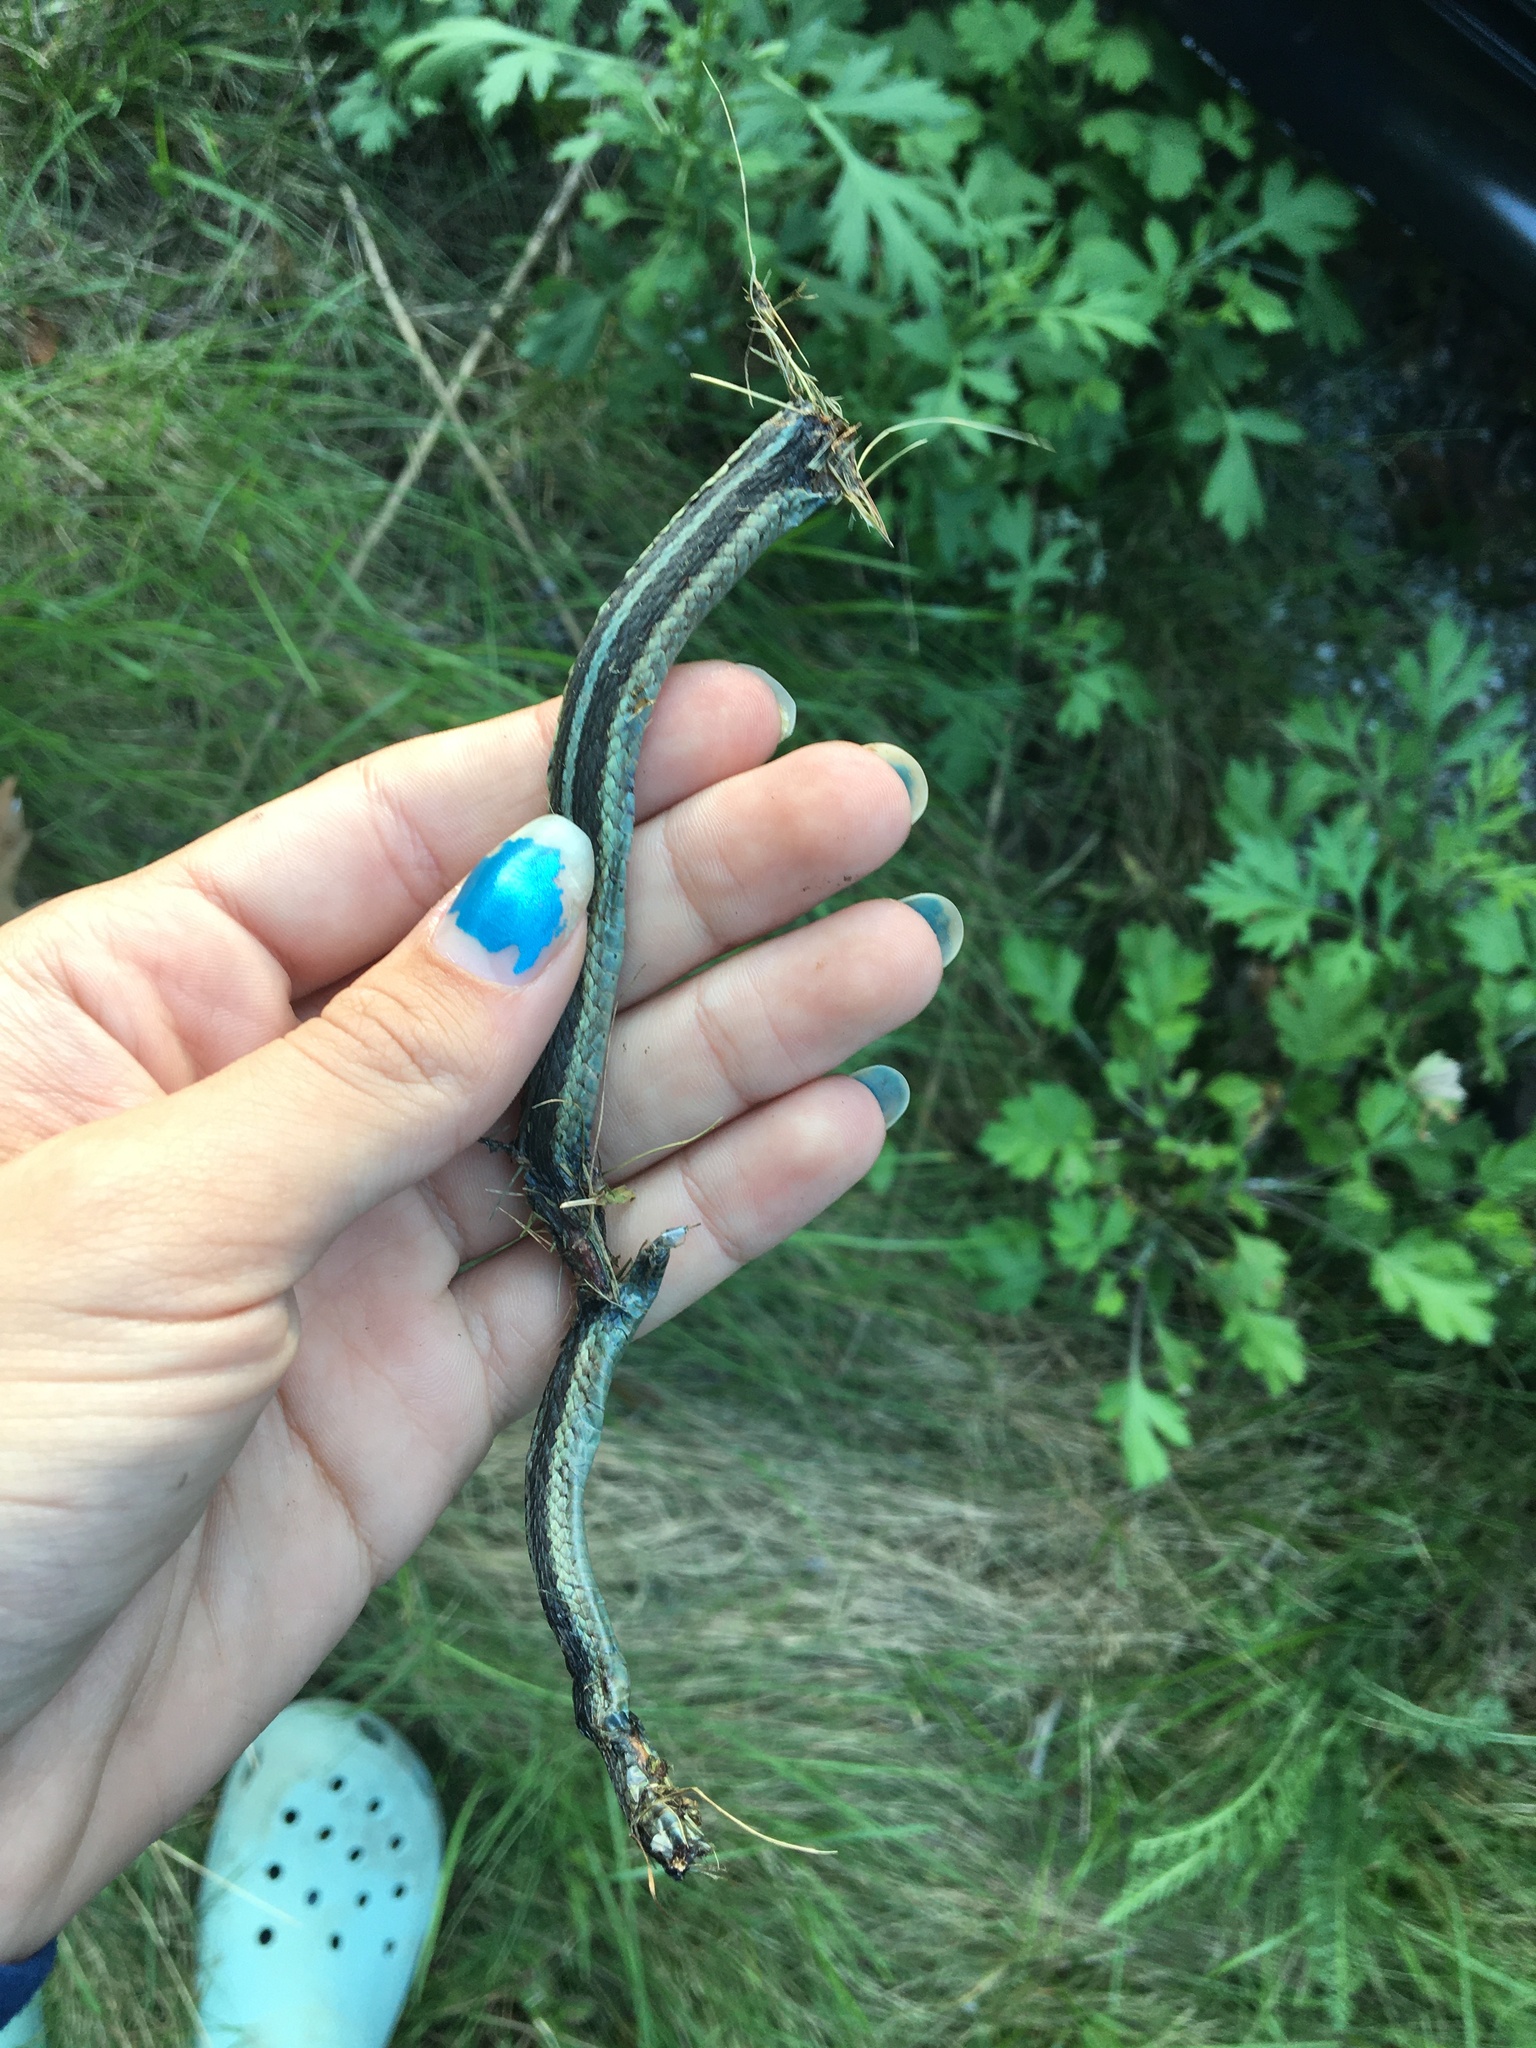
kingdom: Animalia
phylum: Chordata
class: Squamata
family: Colubridae
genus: Thamnophis
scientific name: Thamnophis sirtalis
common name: Common garter snake
